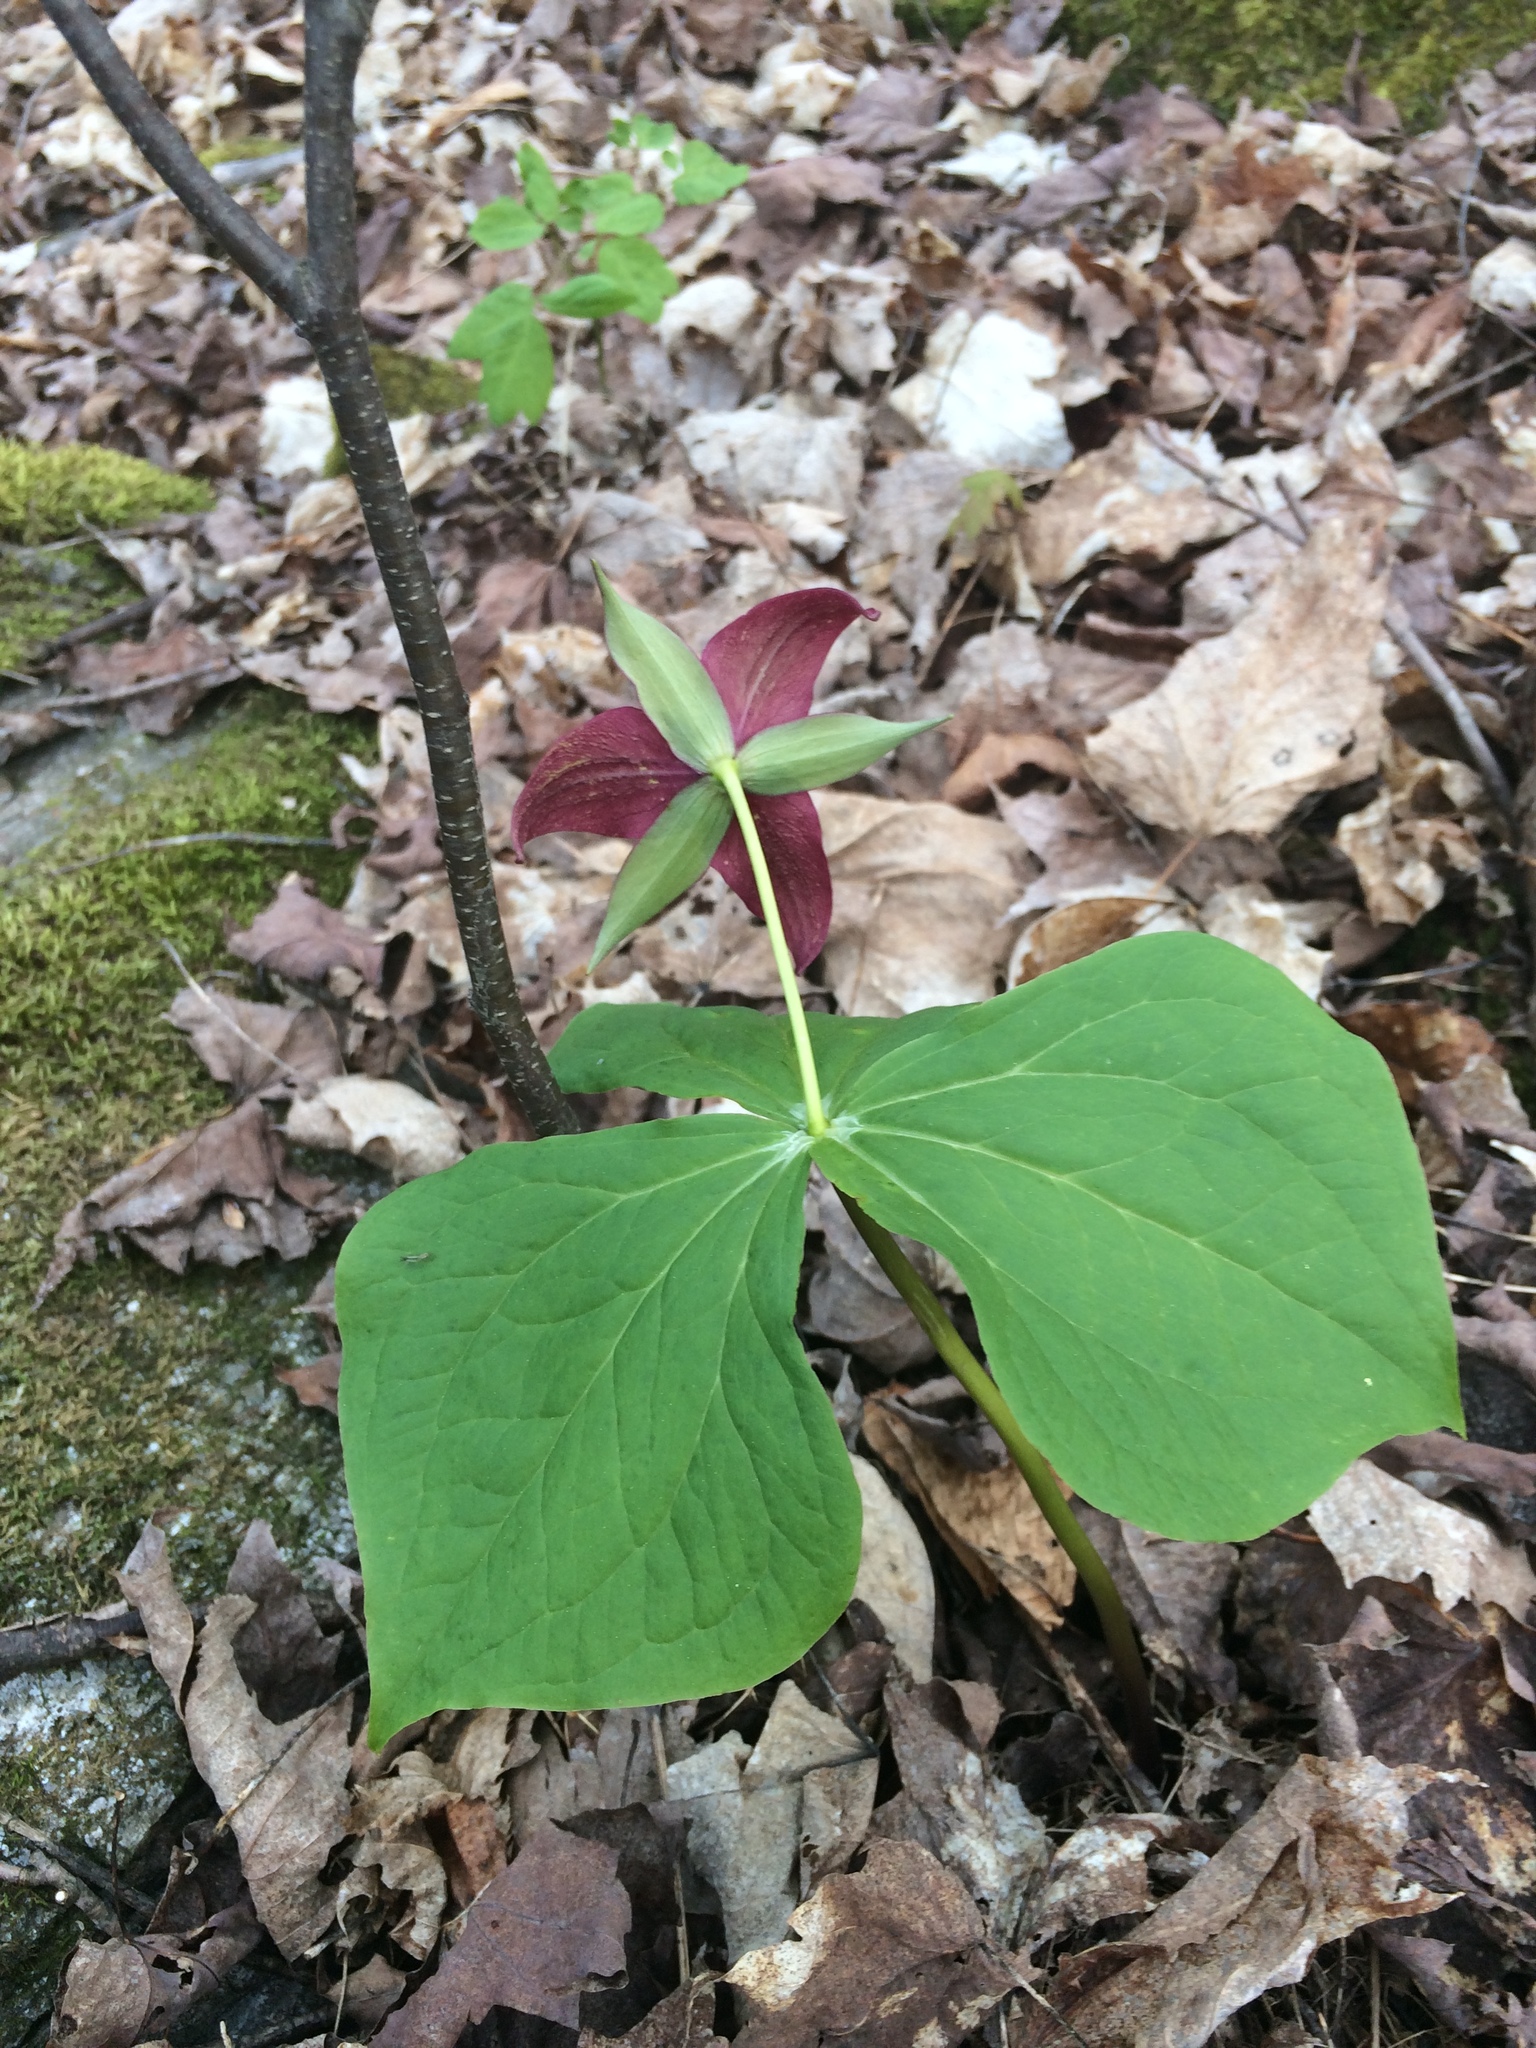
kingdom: Plantae
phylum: Tracheophyta
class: Liliopsida
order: Liliales
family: Melanthiaceae
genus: Trillium
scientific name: Trillium erectum
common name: Purple trillium
